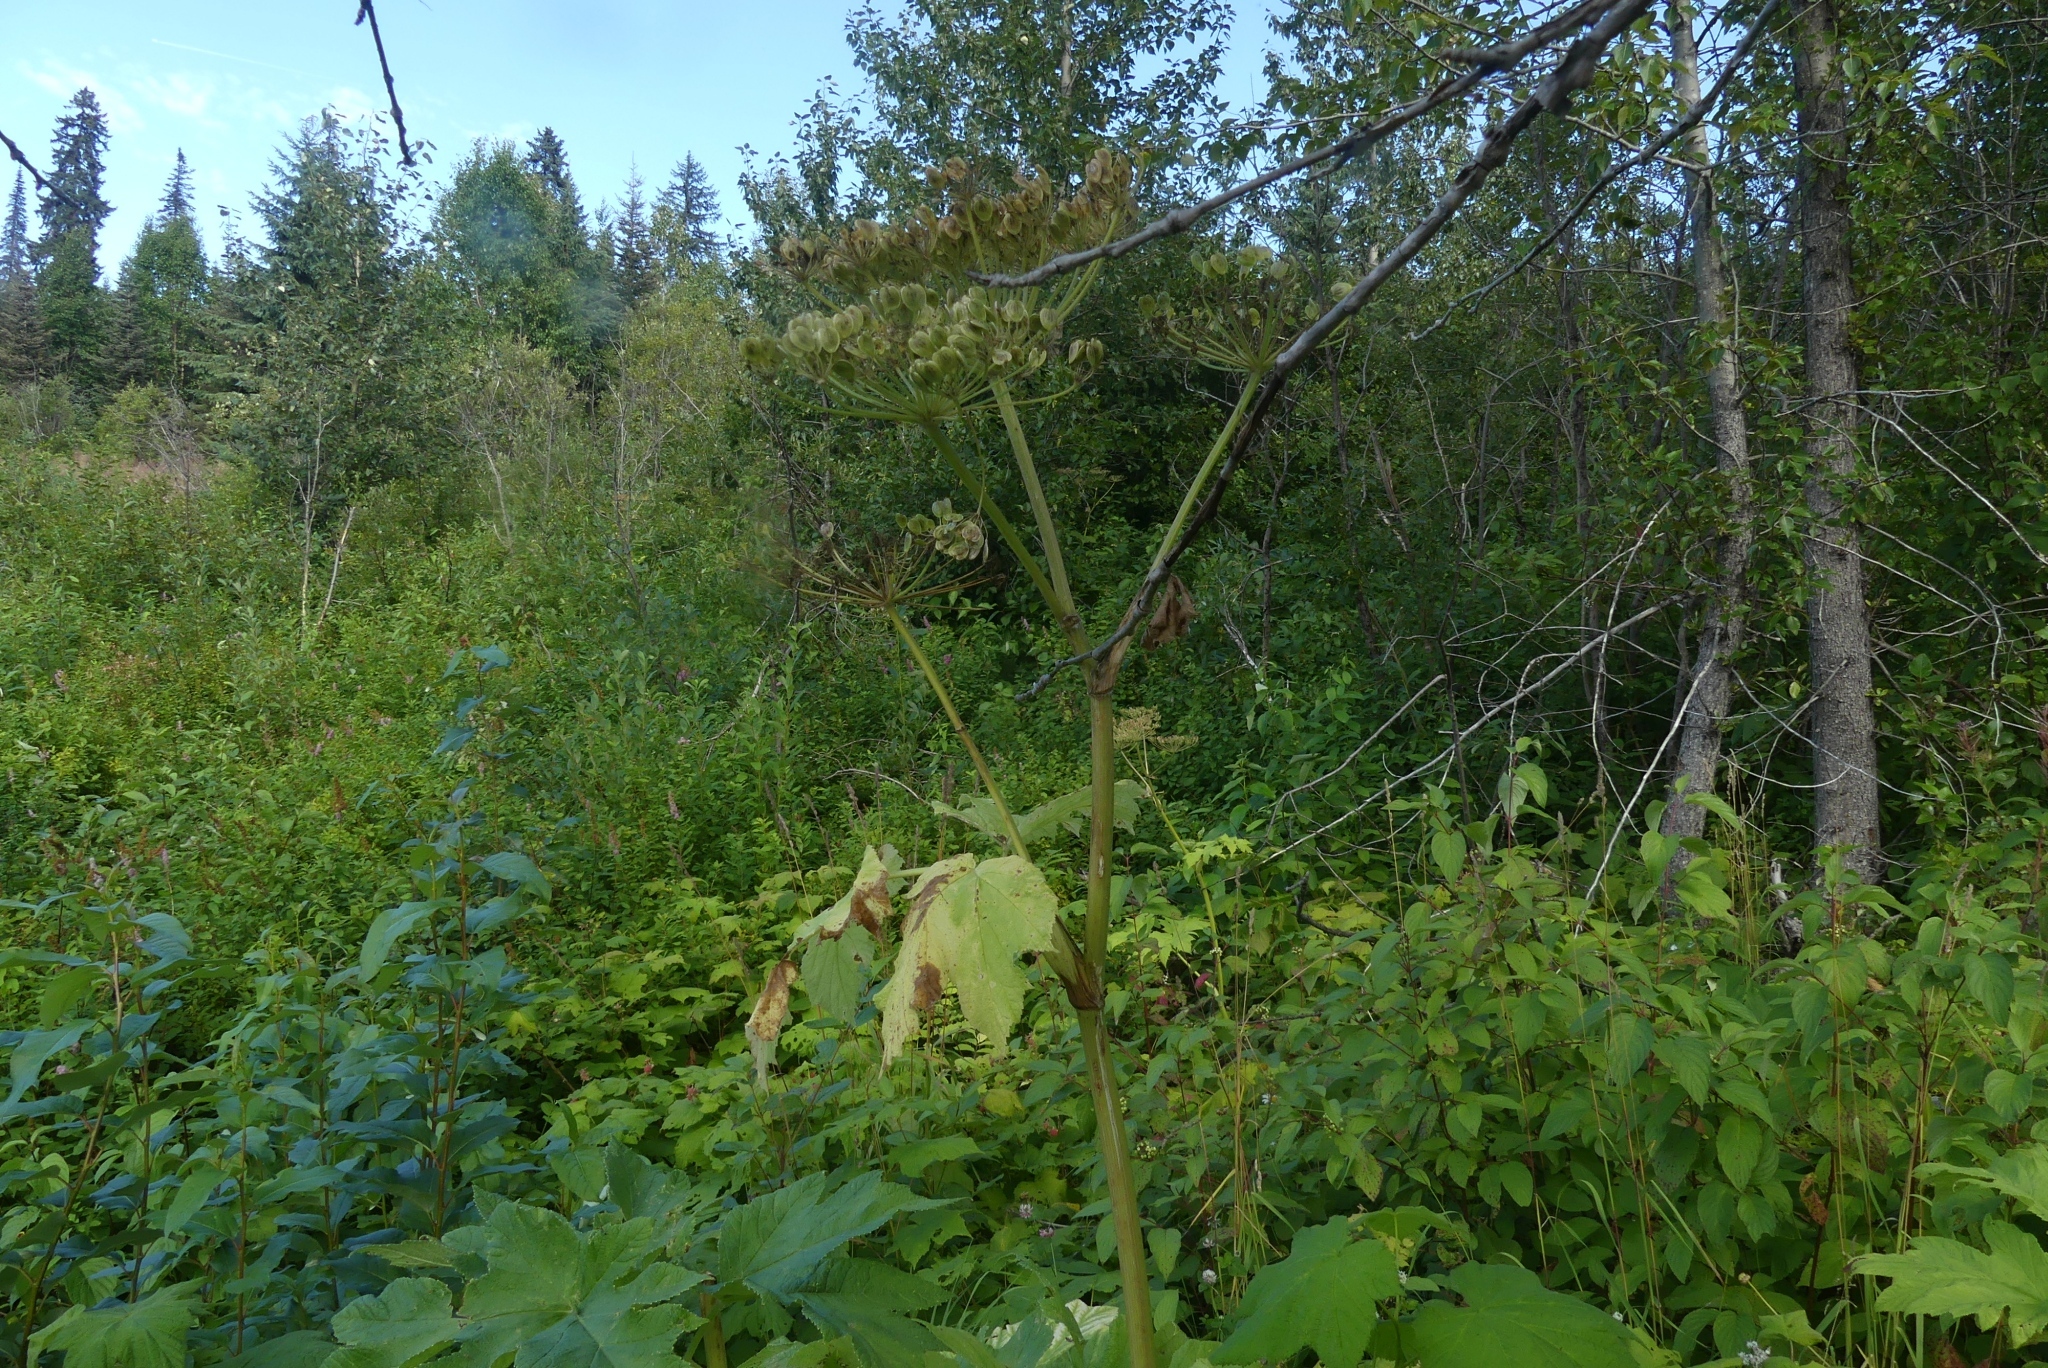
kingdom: Plantae
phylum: Tracheophyta
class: Magnoliopsida
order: Apiales
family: Apiaceae
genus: Heracleum
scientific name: Heracleum maximum
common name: American cow parsnip
